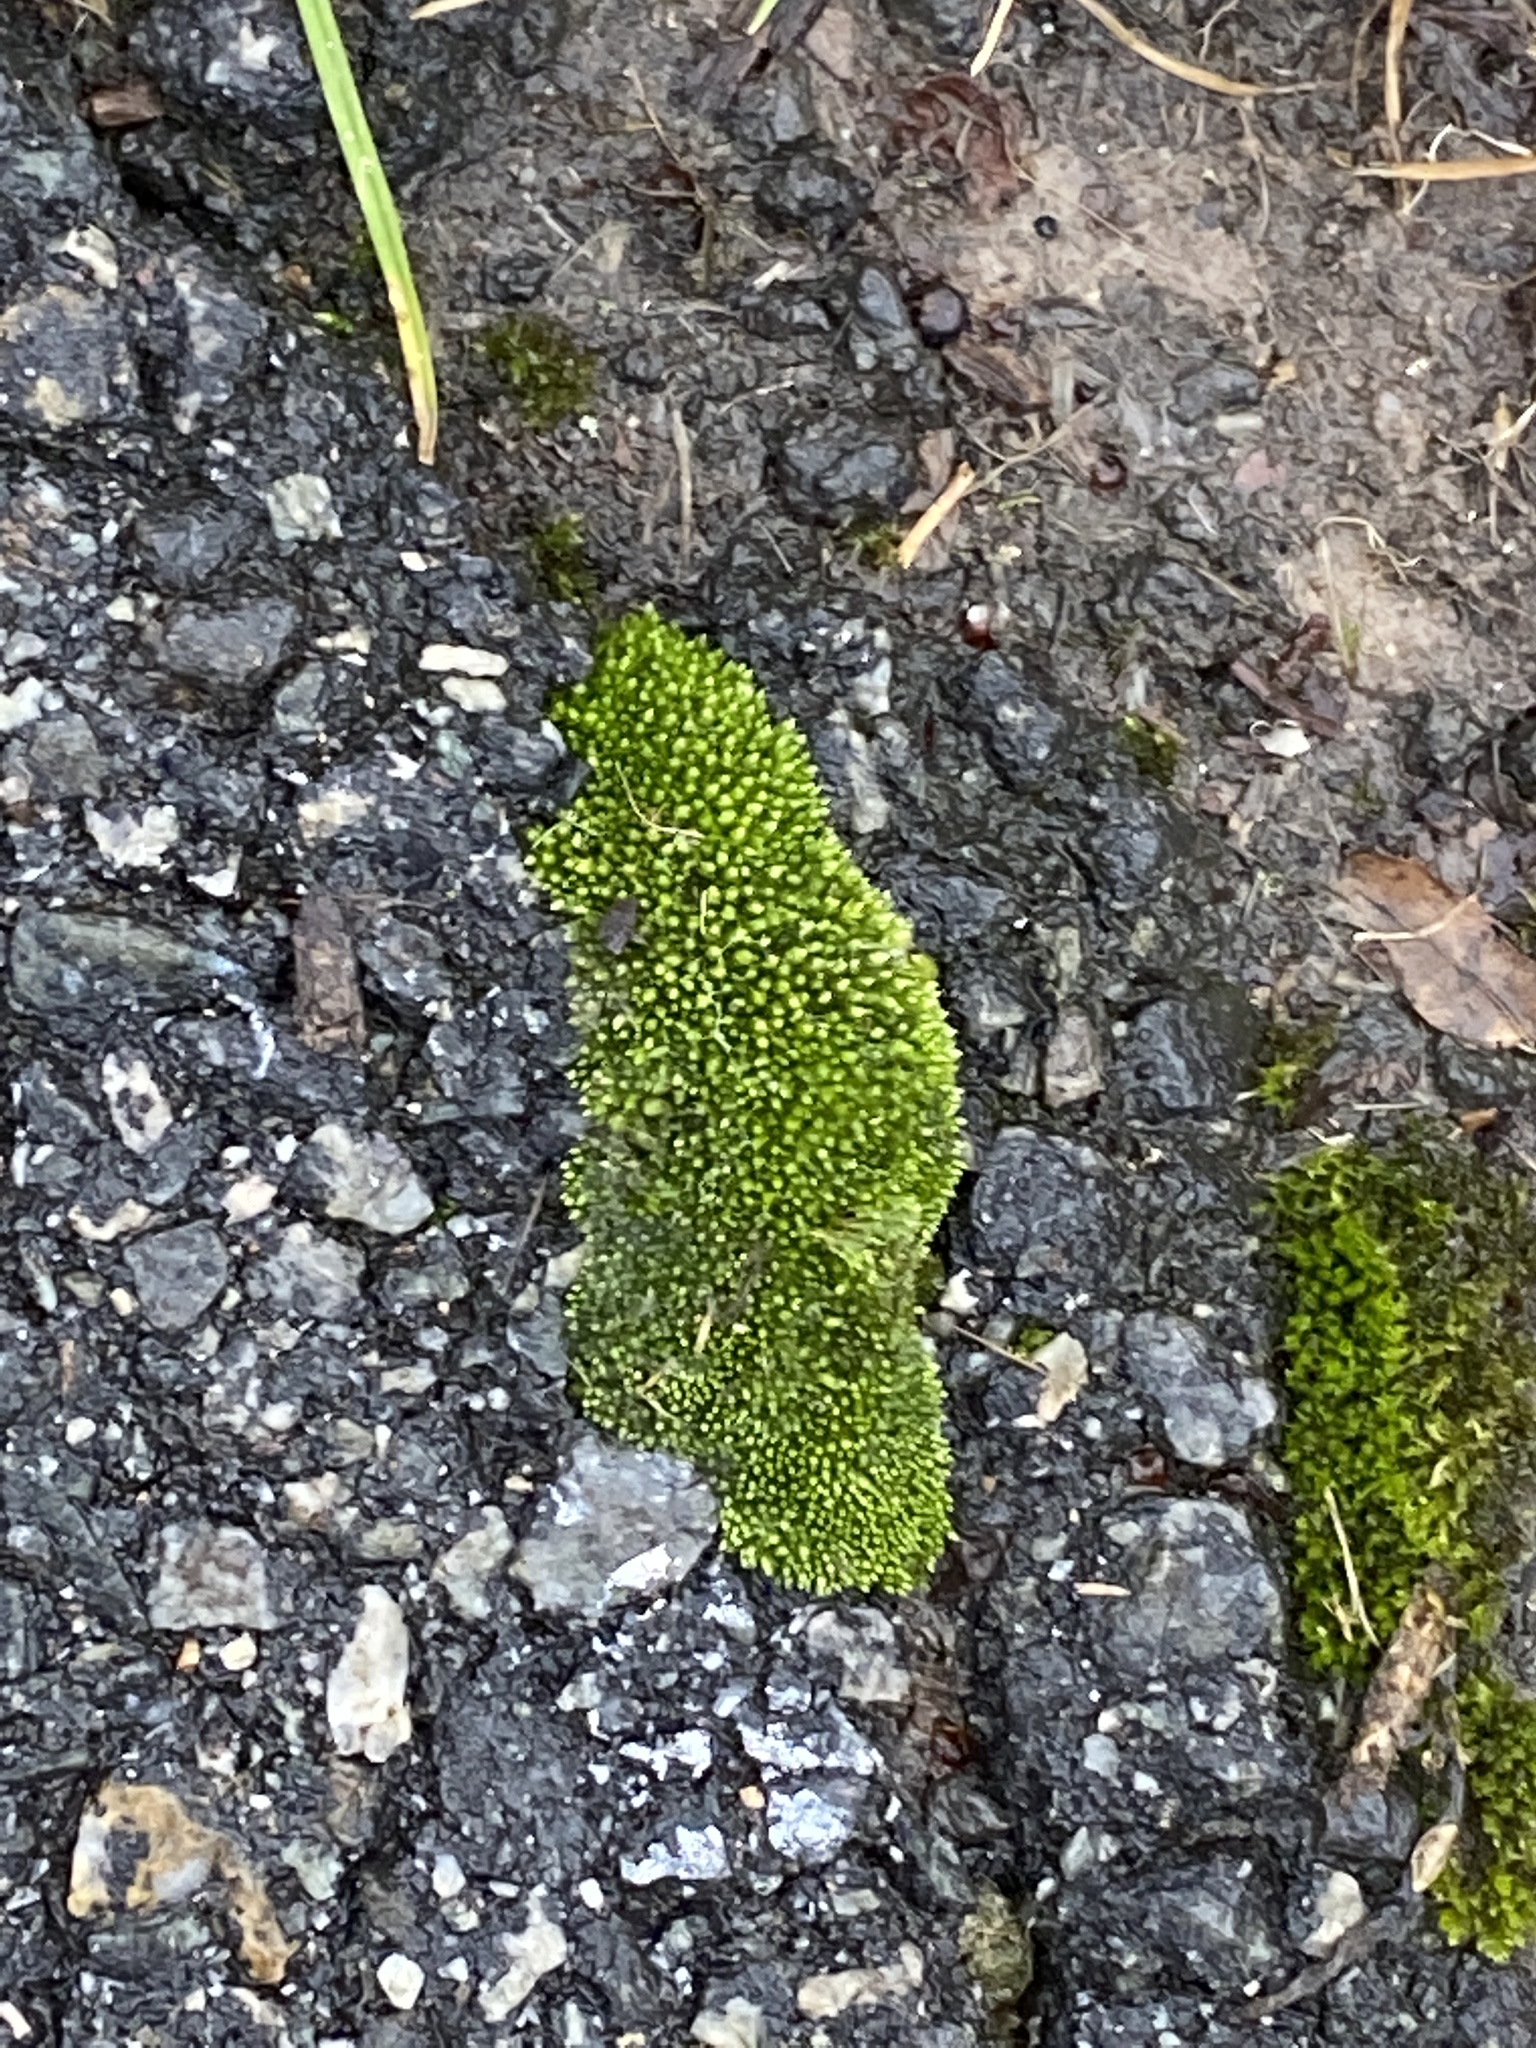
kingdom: Plantae
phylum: Bryophyta
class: Bryopsida
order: Bryales
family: Bryaceae
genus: Bryum
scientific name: Bryum argenteum
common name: Silver-moss
